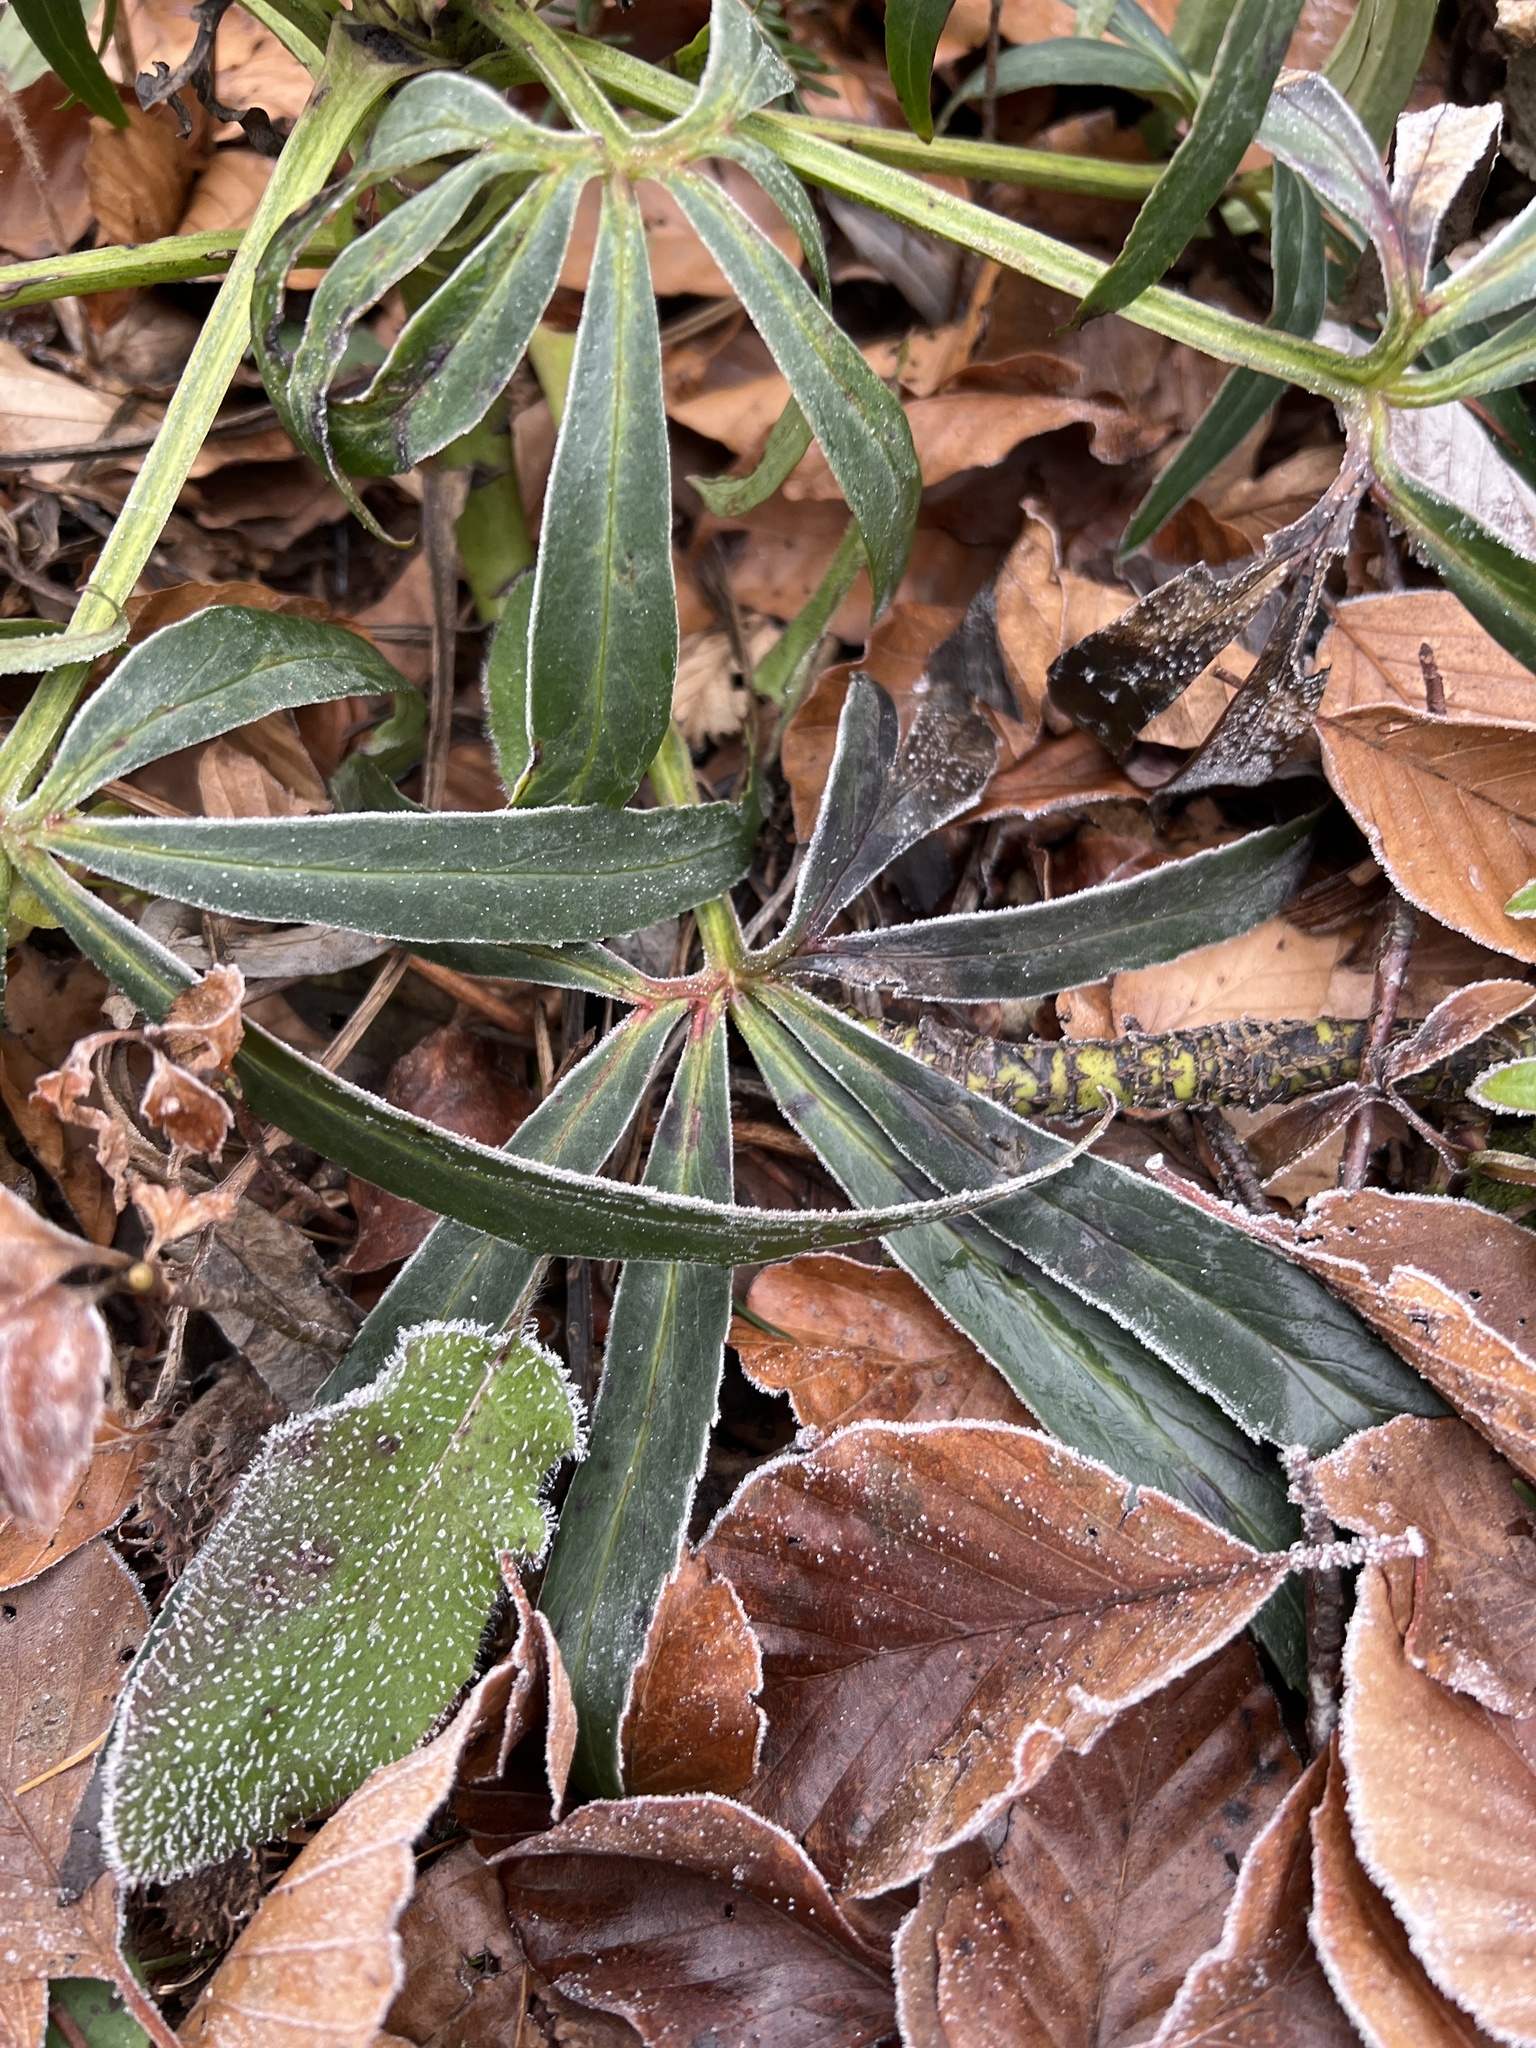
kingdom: Plantae
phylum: Tracheophyta
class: Magnoliopsida
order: Ranunculales
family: Ranunculaceae
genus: Helleborus
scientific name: Helleborus foetidus
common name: Stinking hellebore
